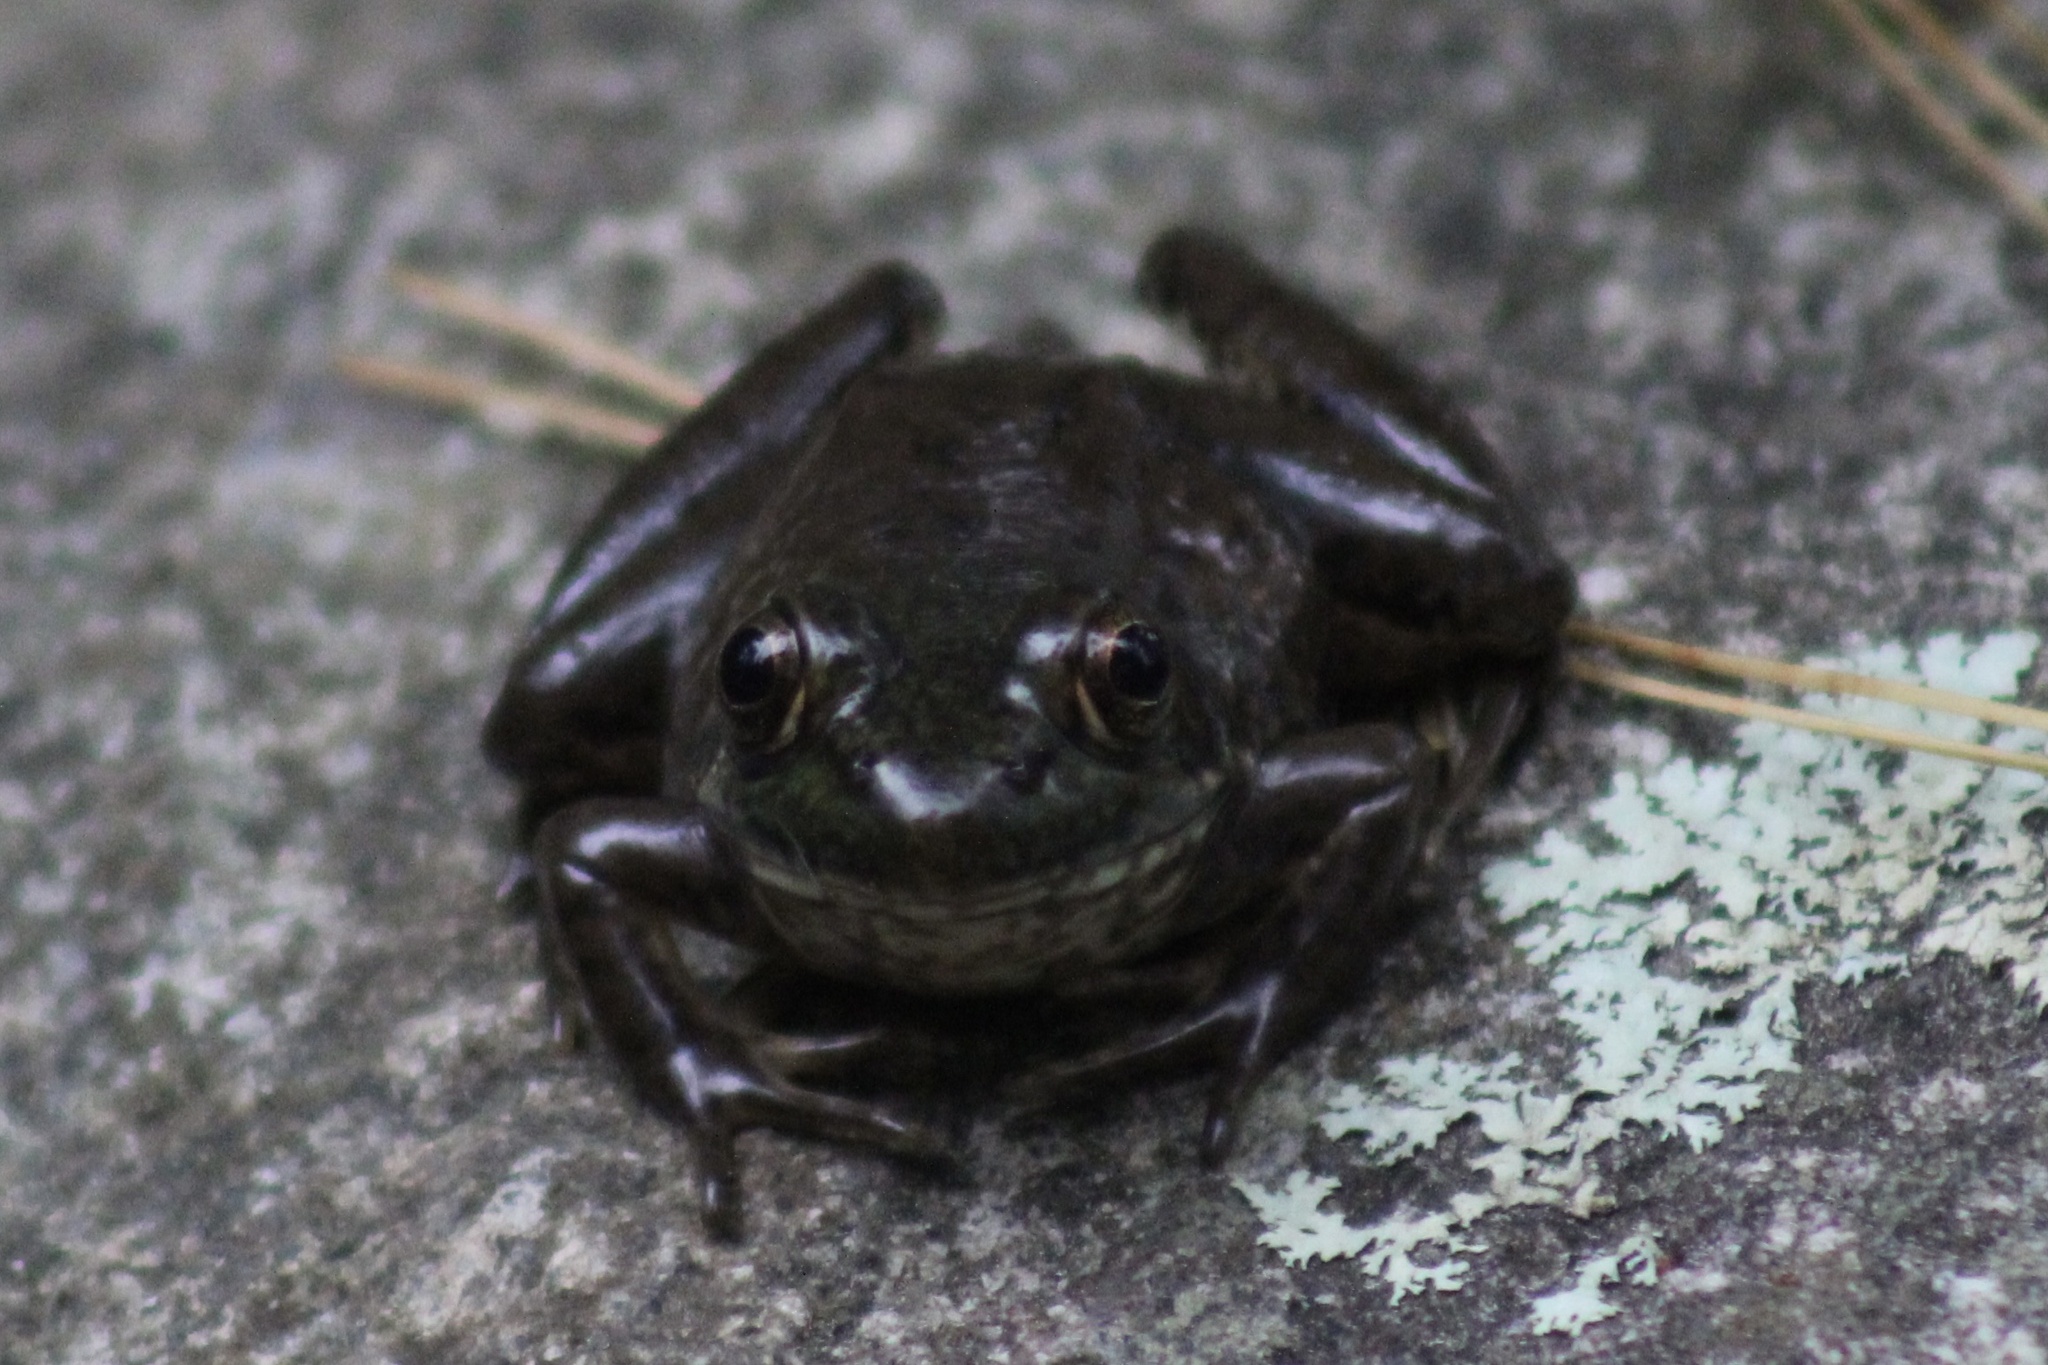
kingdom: Animalia
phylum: Chordata
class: Amphibia
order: Anura
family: Ranidae
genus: Lithobates
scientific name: Lithobates clamitans
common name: Green frog
